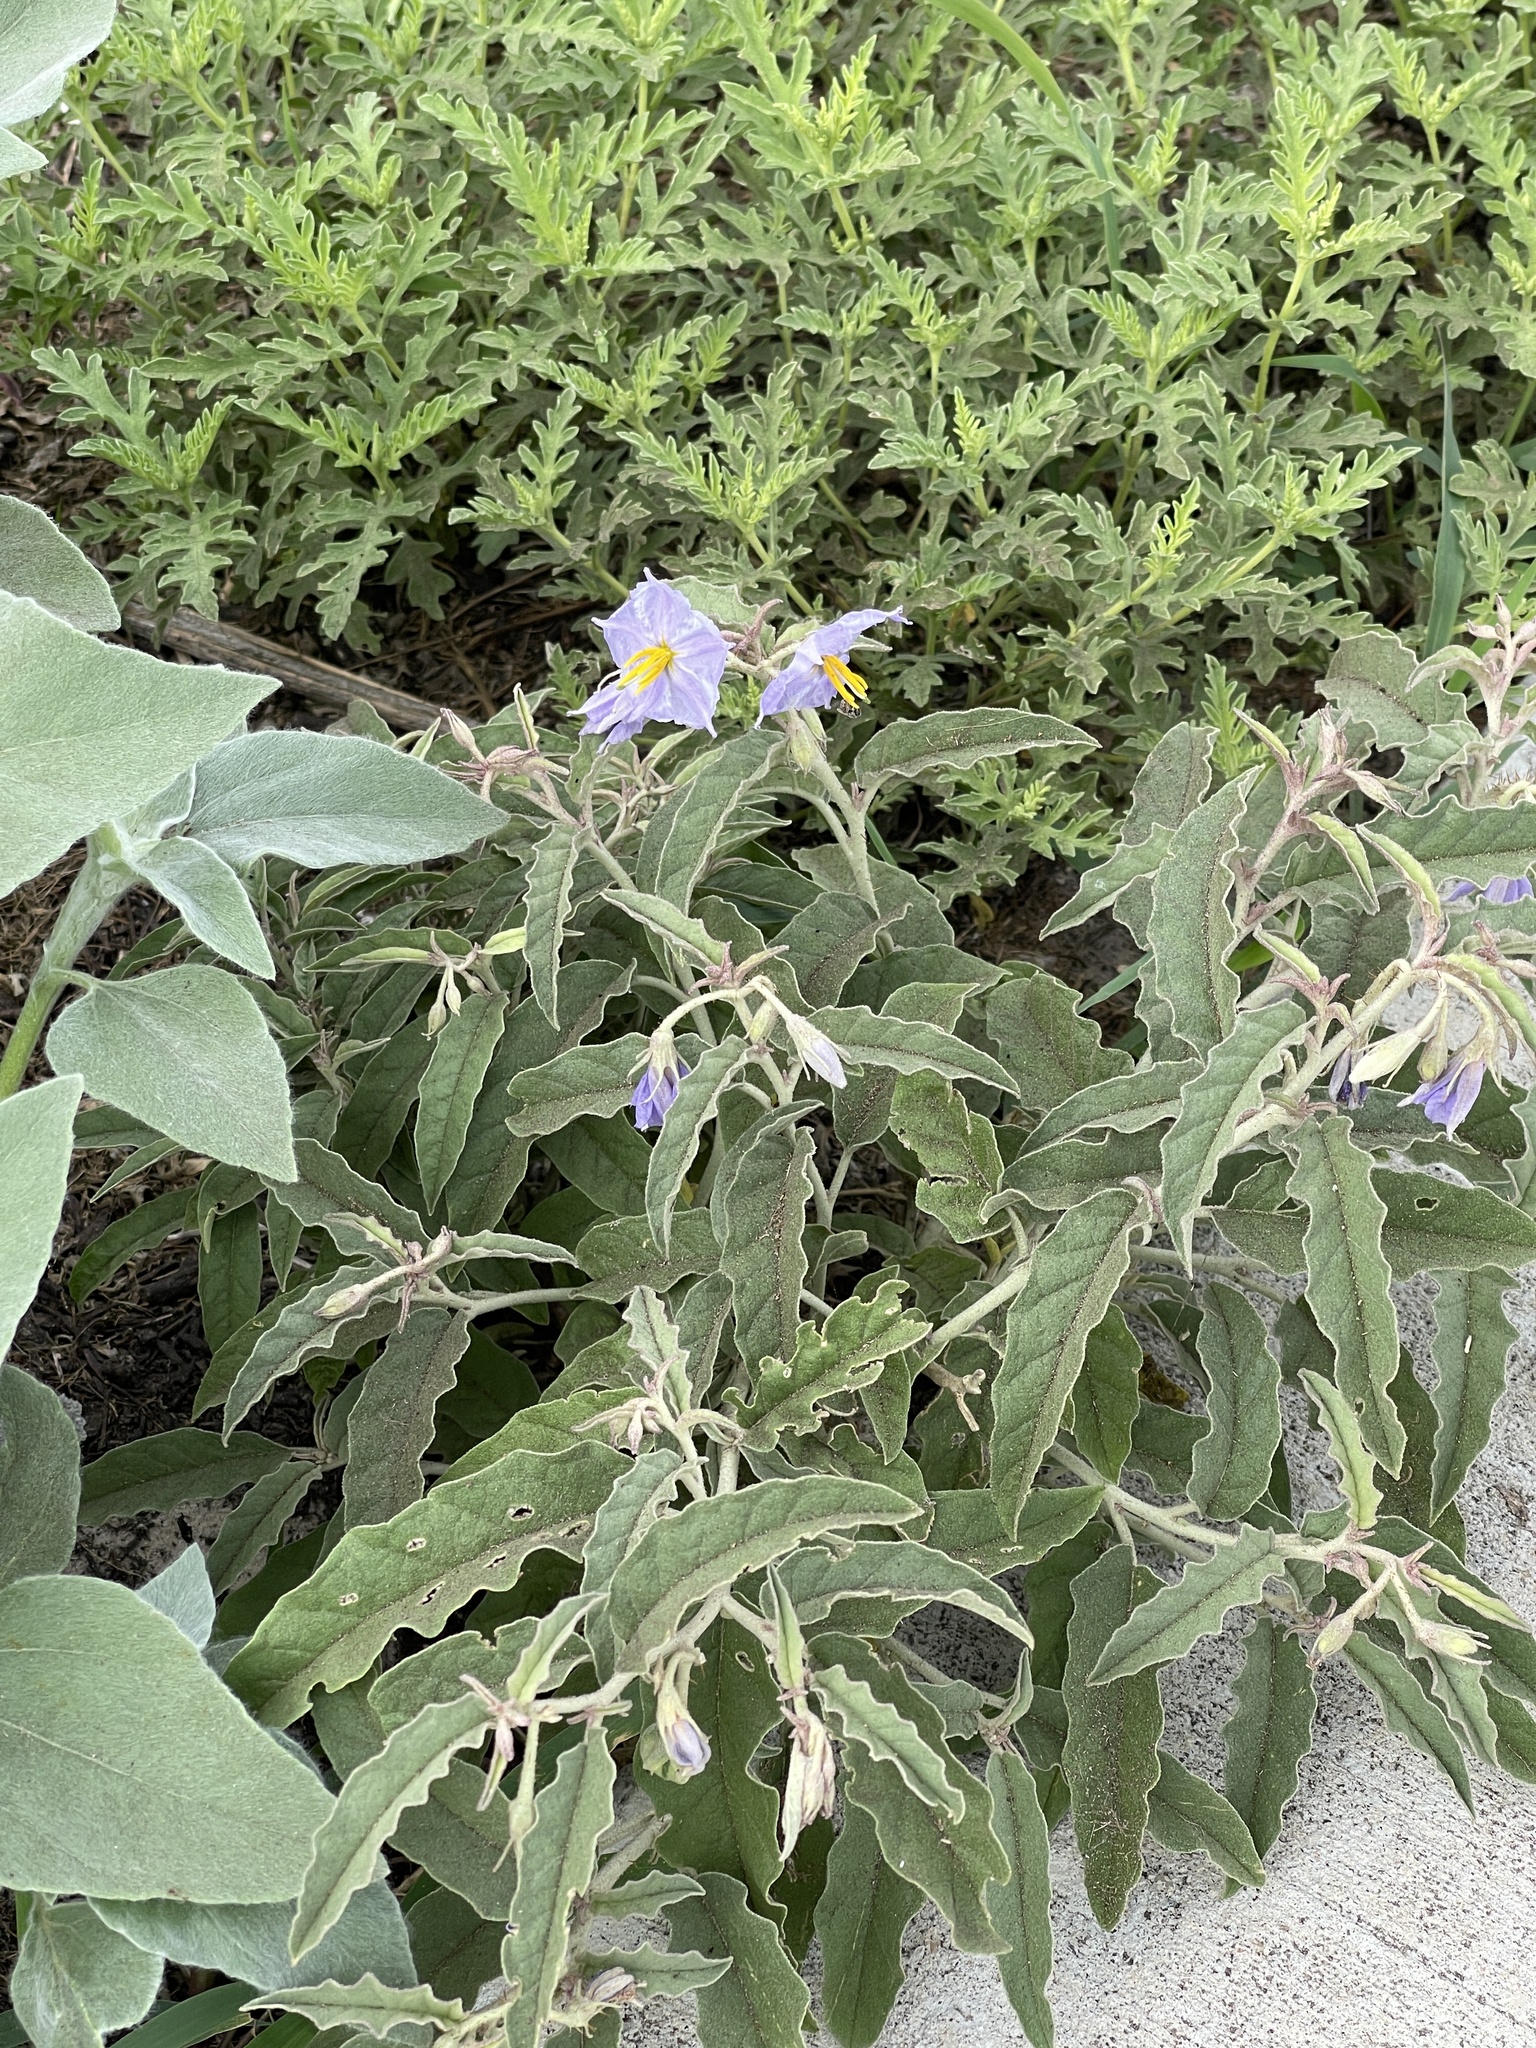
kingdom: Plantae
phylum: Tracheophyta
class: Magnoliopsida
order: Solanales
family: Solanaceae
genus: Solanum
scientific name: Solanum elaeagnifolium
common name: Silverleaf nightshade
